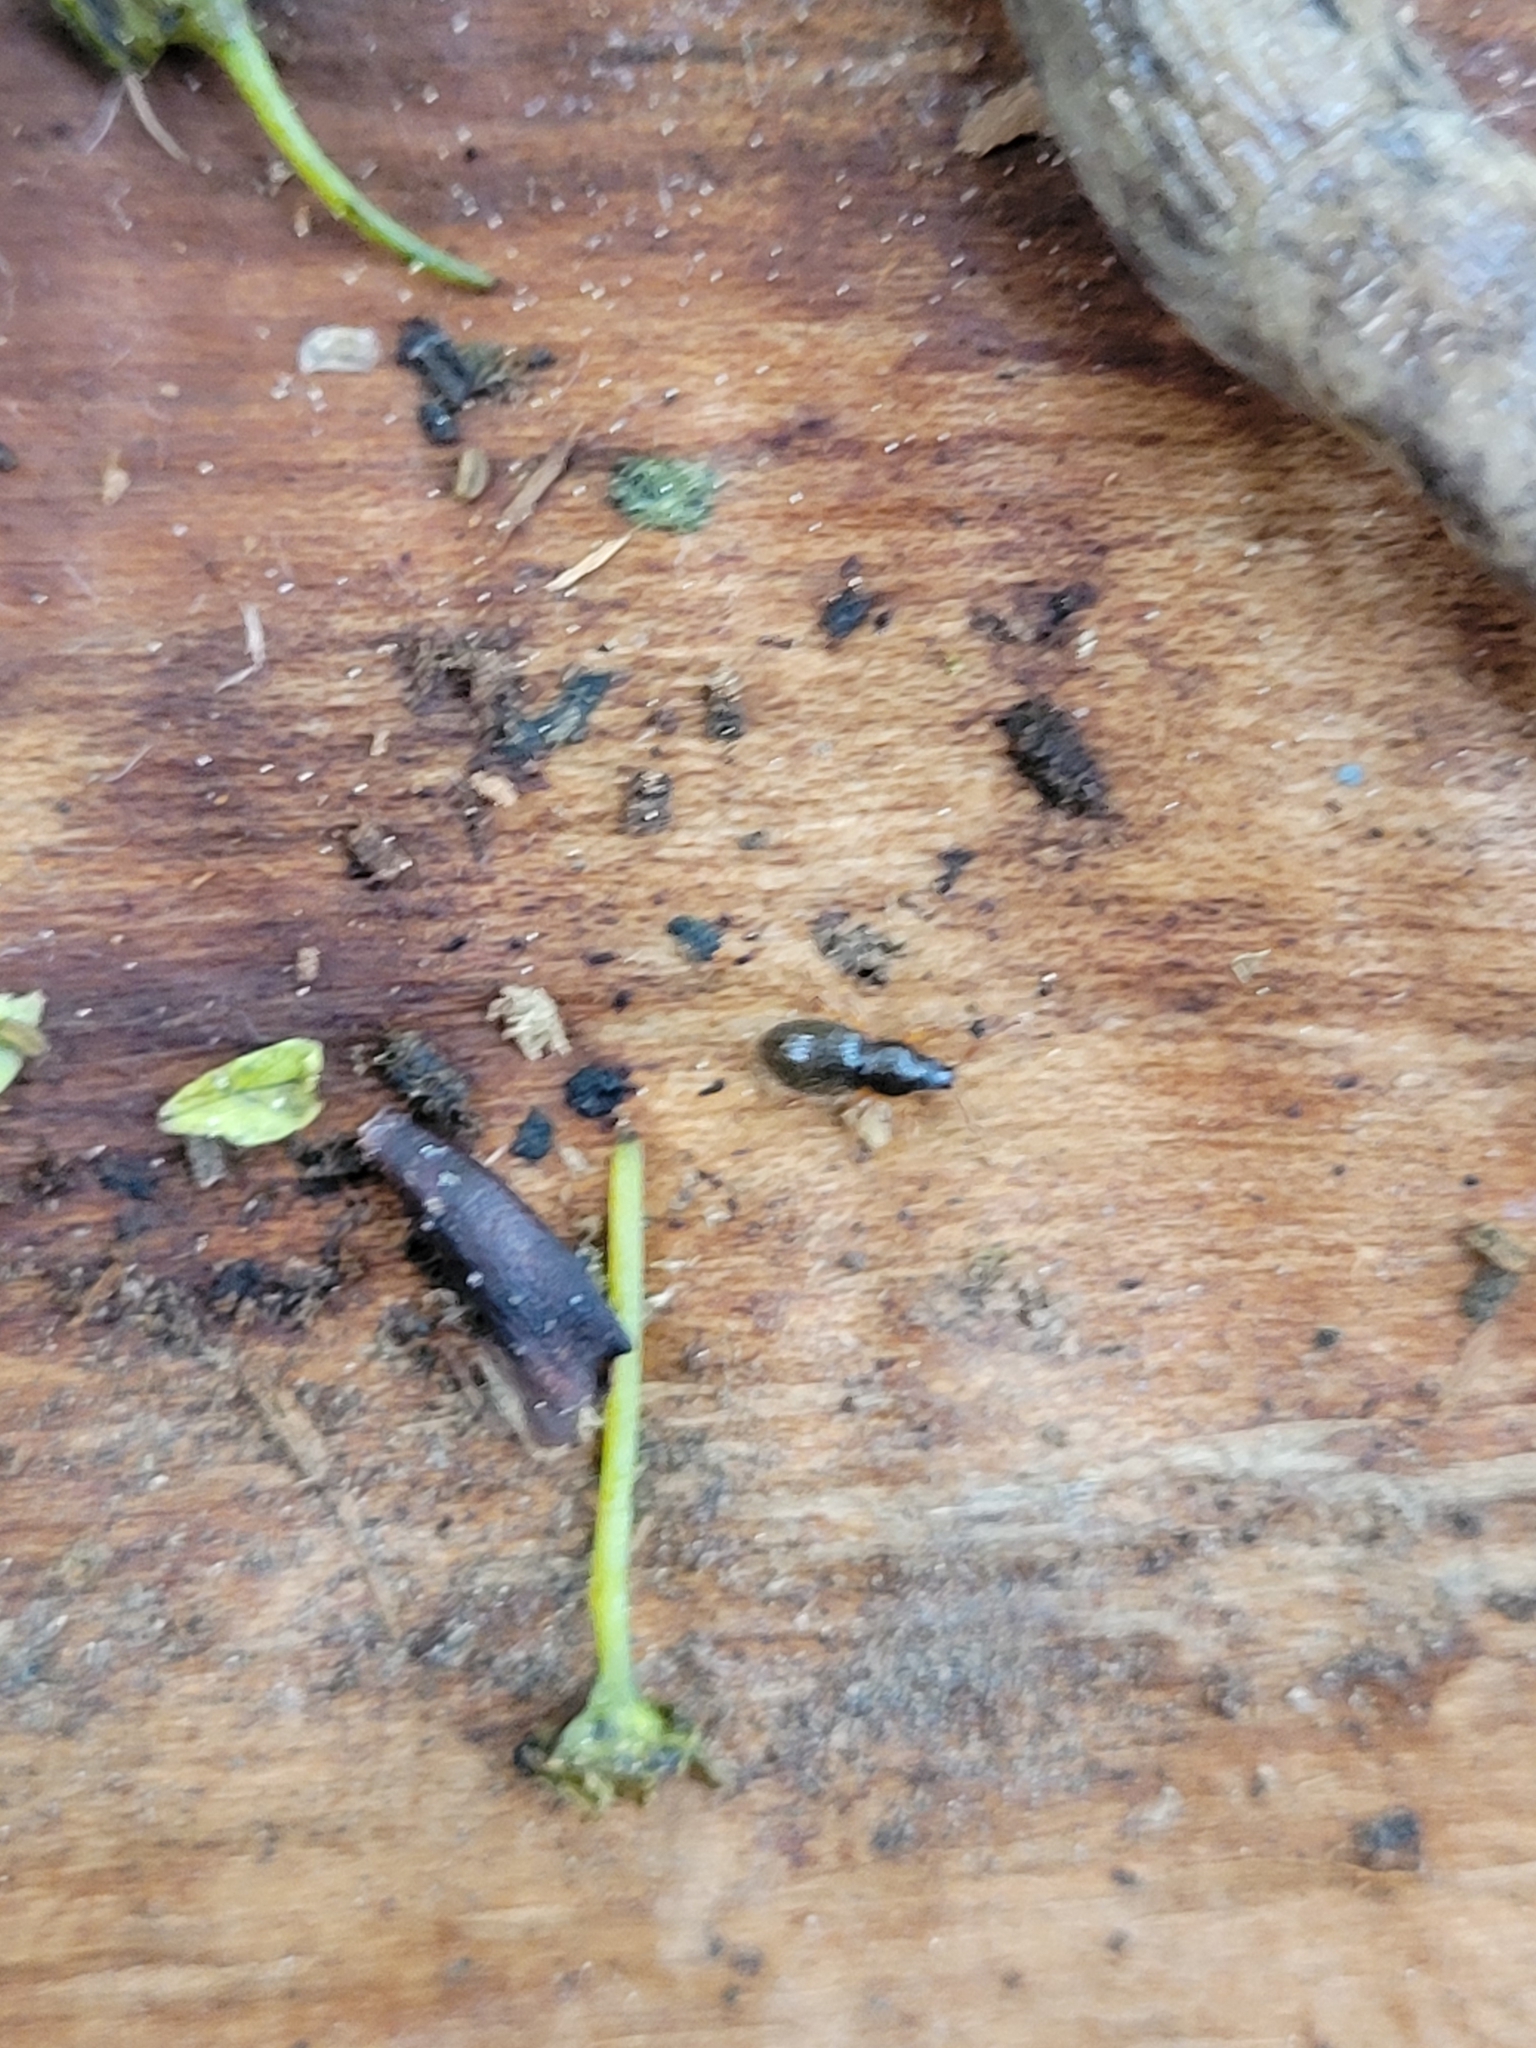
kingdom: Animalia
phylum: Arthropoda
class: Insecta
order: Coleoptera
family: Curculionidae
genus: Exomias
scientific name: Exomias pellucidus
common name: Hairy spider weevil
